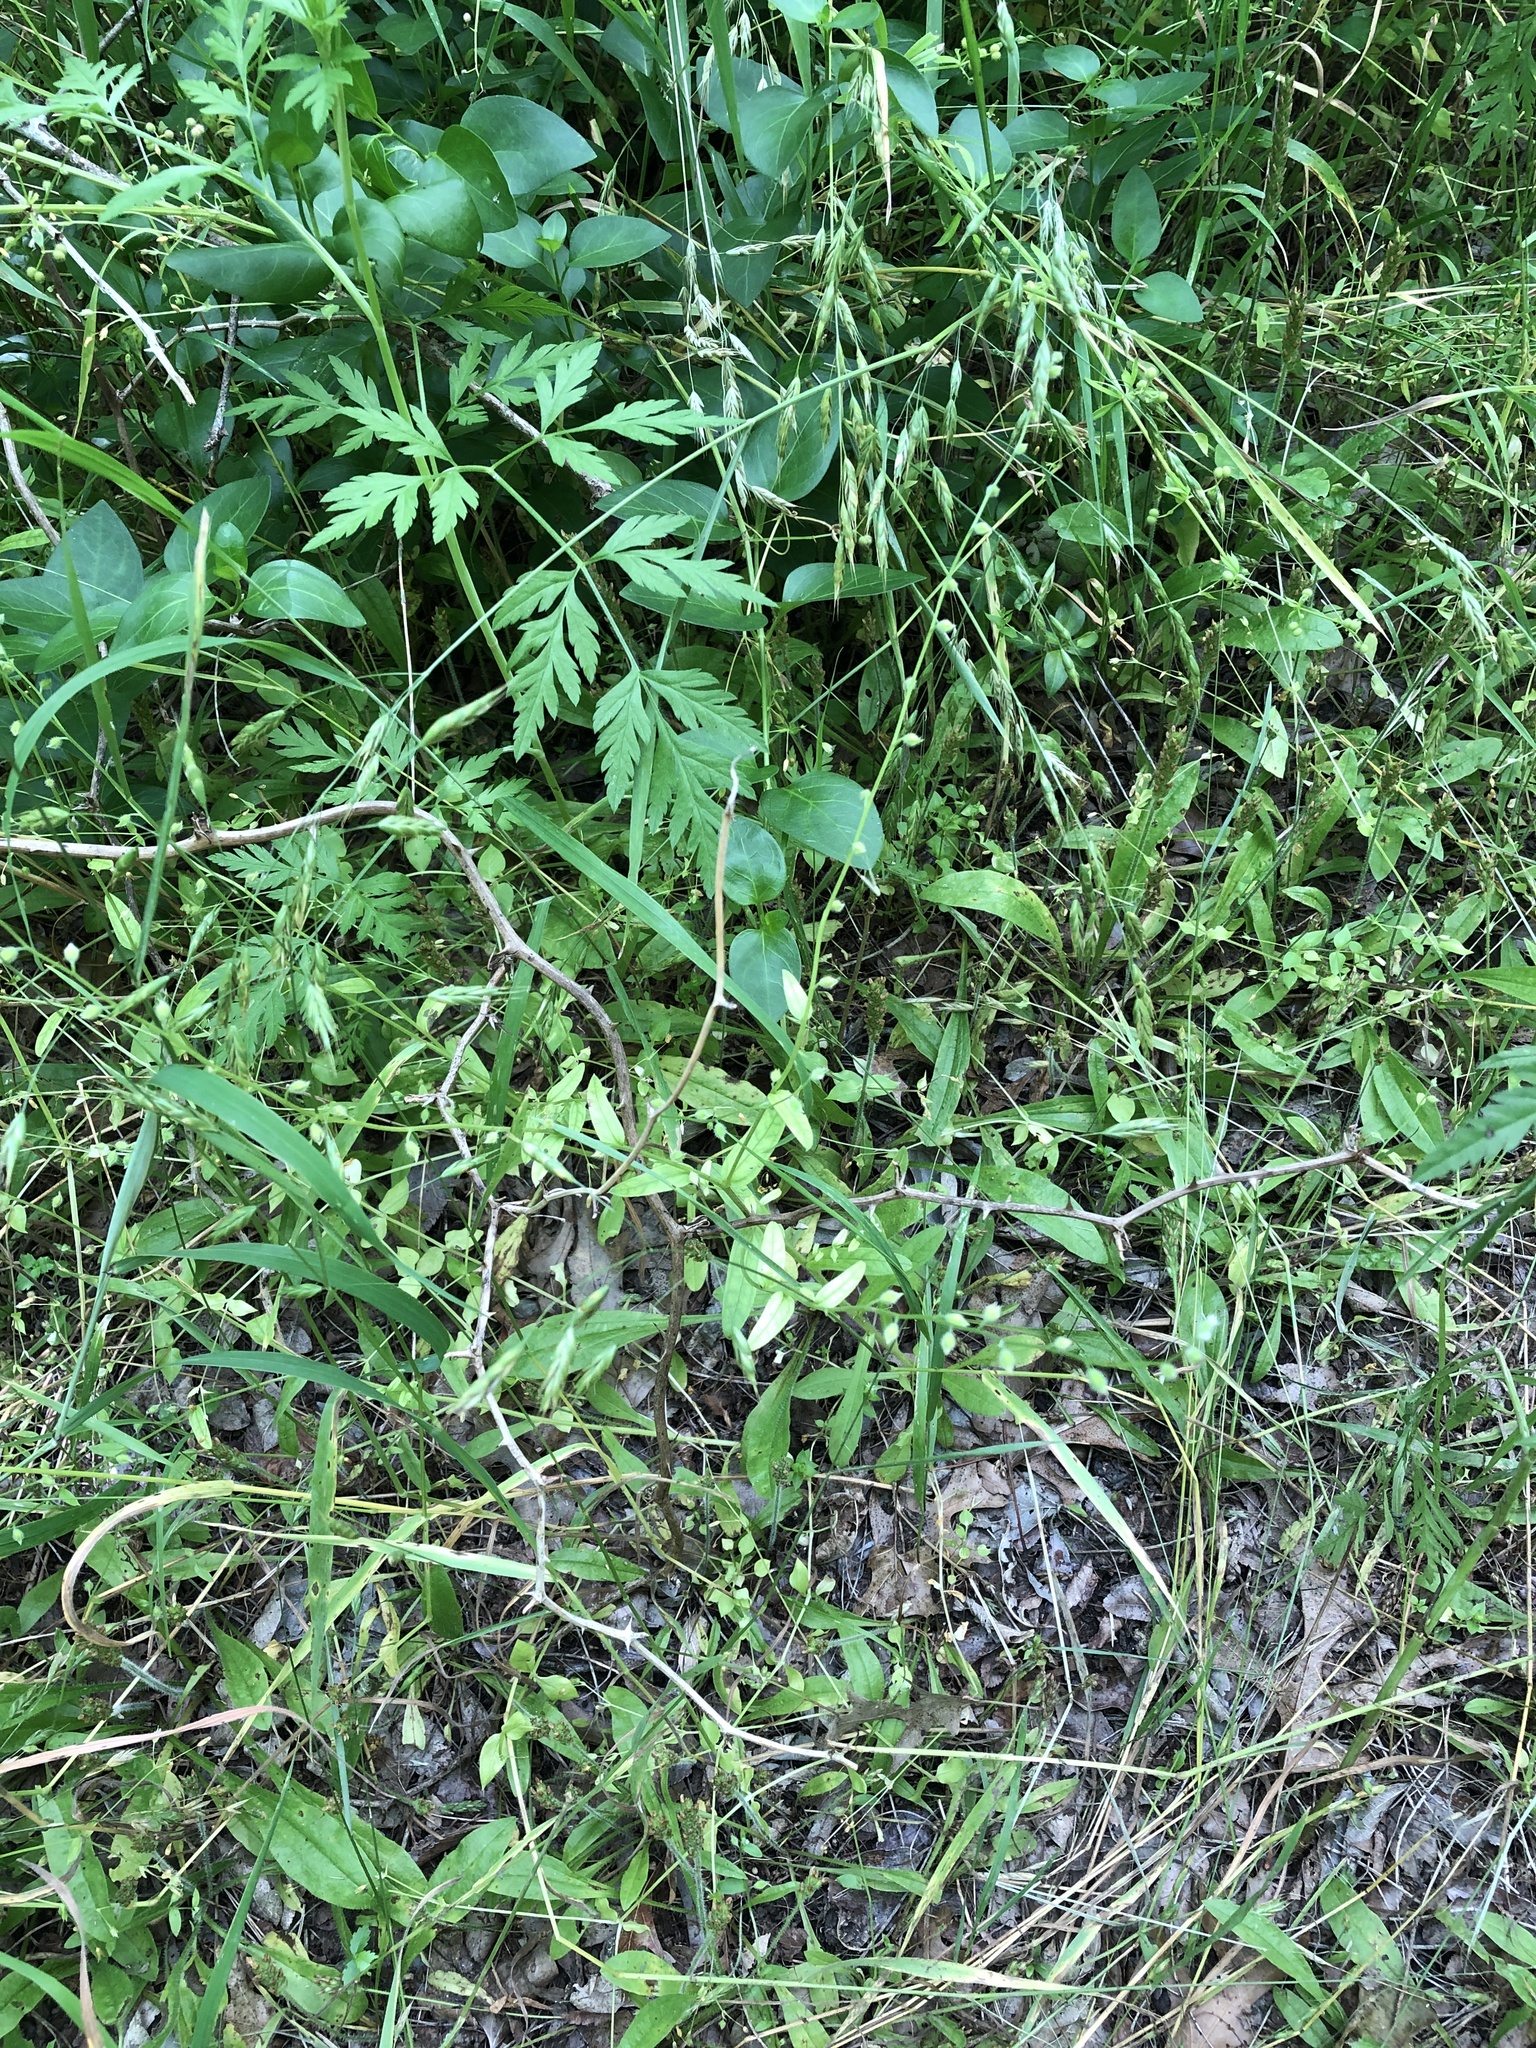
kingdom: Plantae
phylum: Tracheophyta
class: Magnoliopsida
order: Boraginales
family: Boraginaceae
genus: Myosotis
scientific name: Myosotis macrosperma
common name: Large-seed forget-me-not
